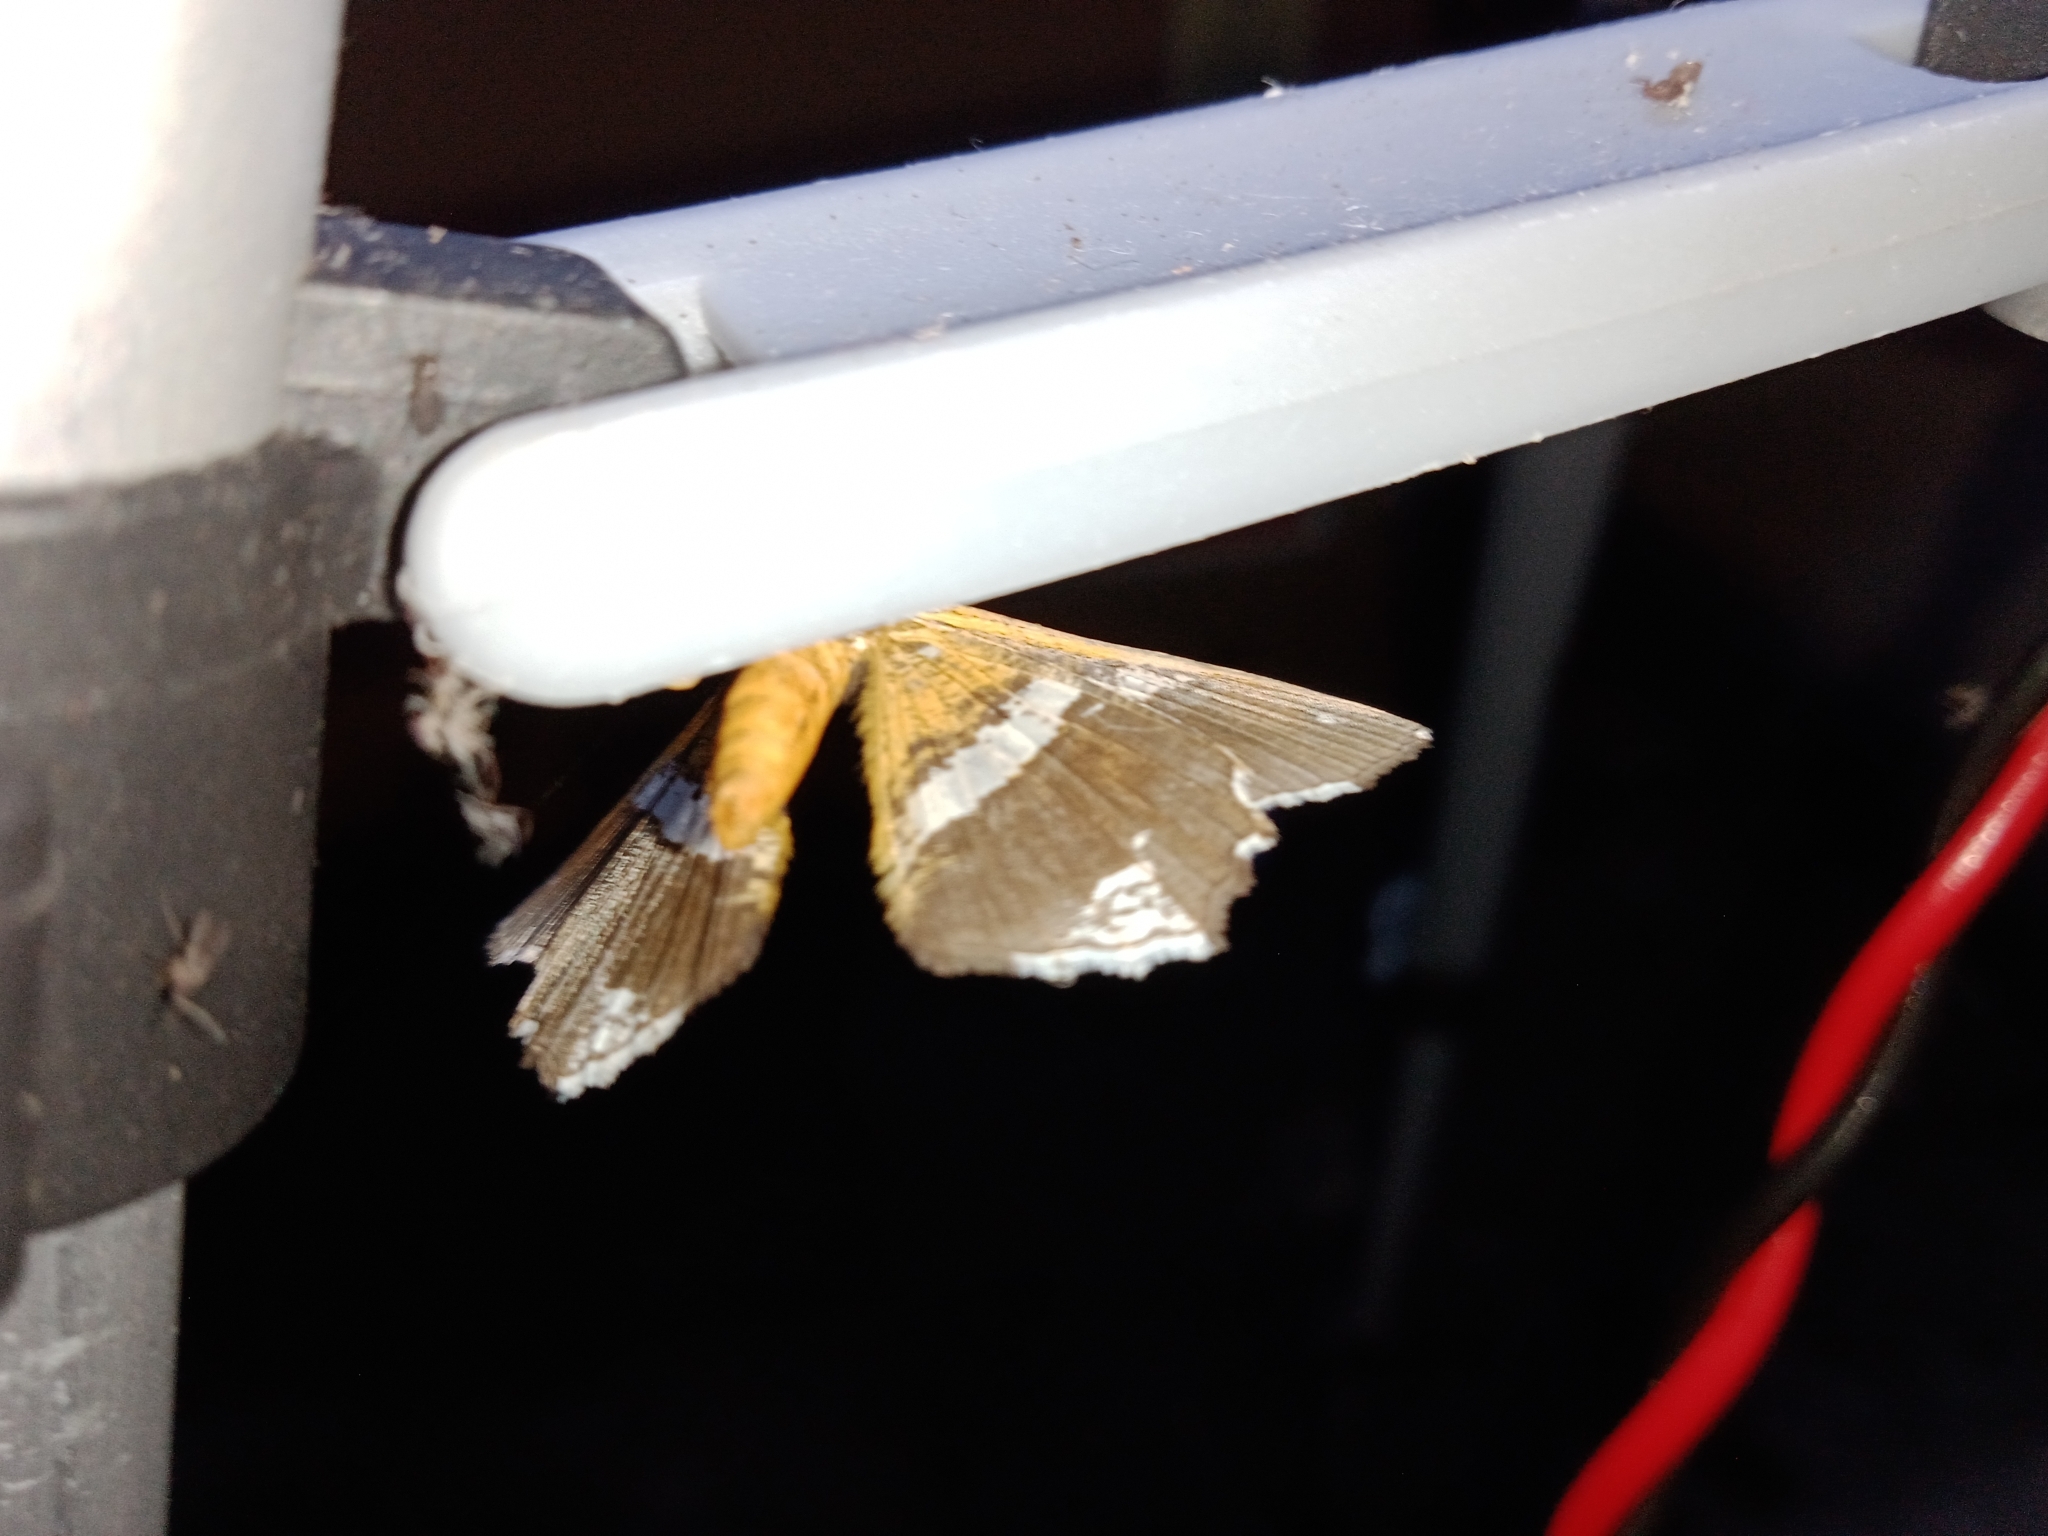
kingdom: Animalia
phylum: Arthropoda
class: Insecta
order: Lepidoptera
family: Geometridae
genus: Chiasmia
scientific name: Chiasmia nora
